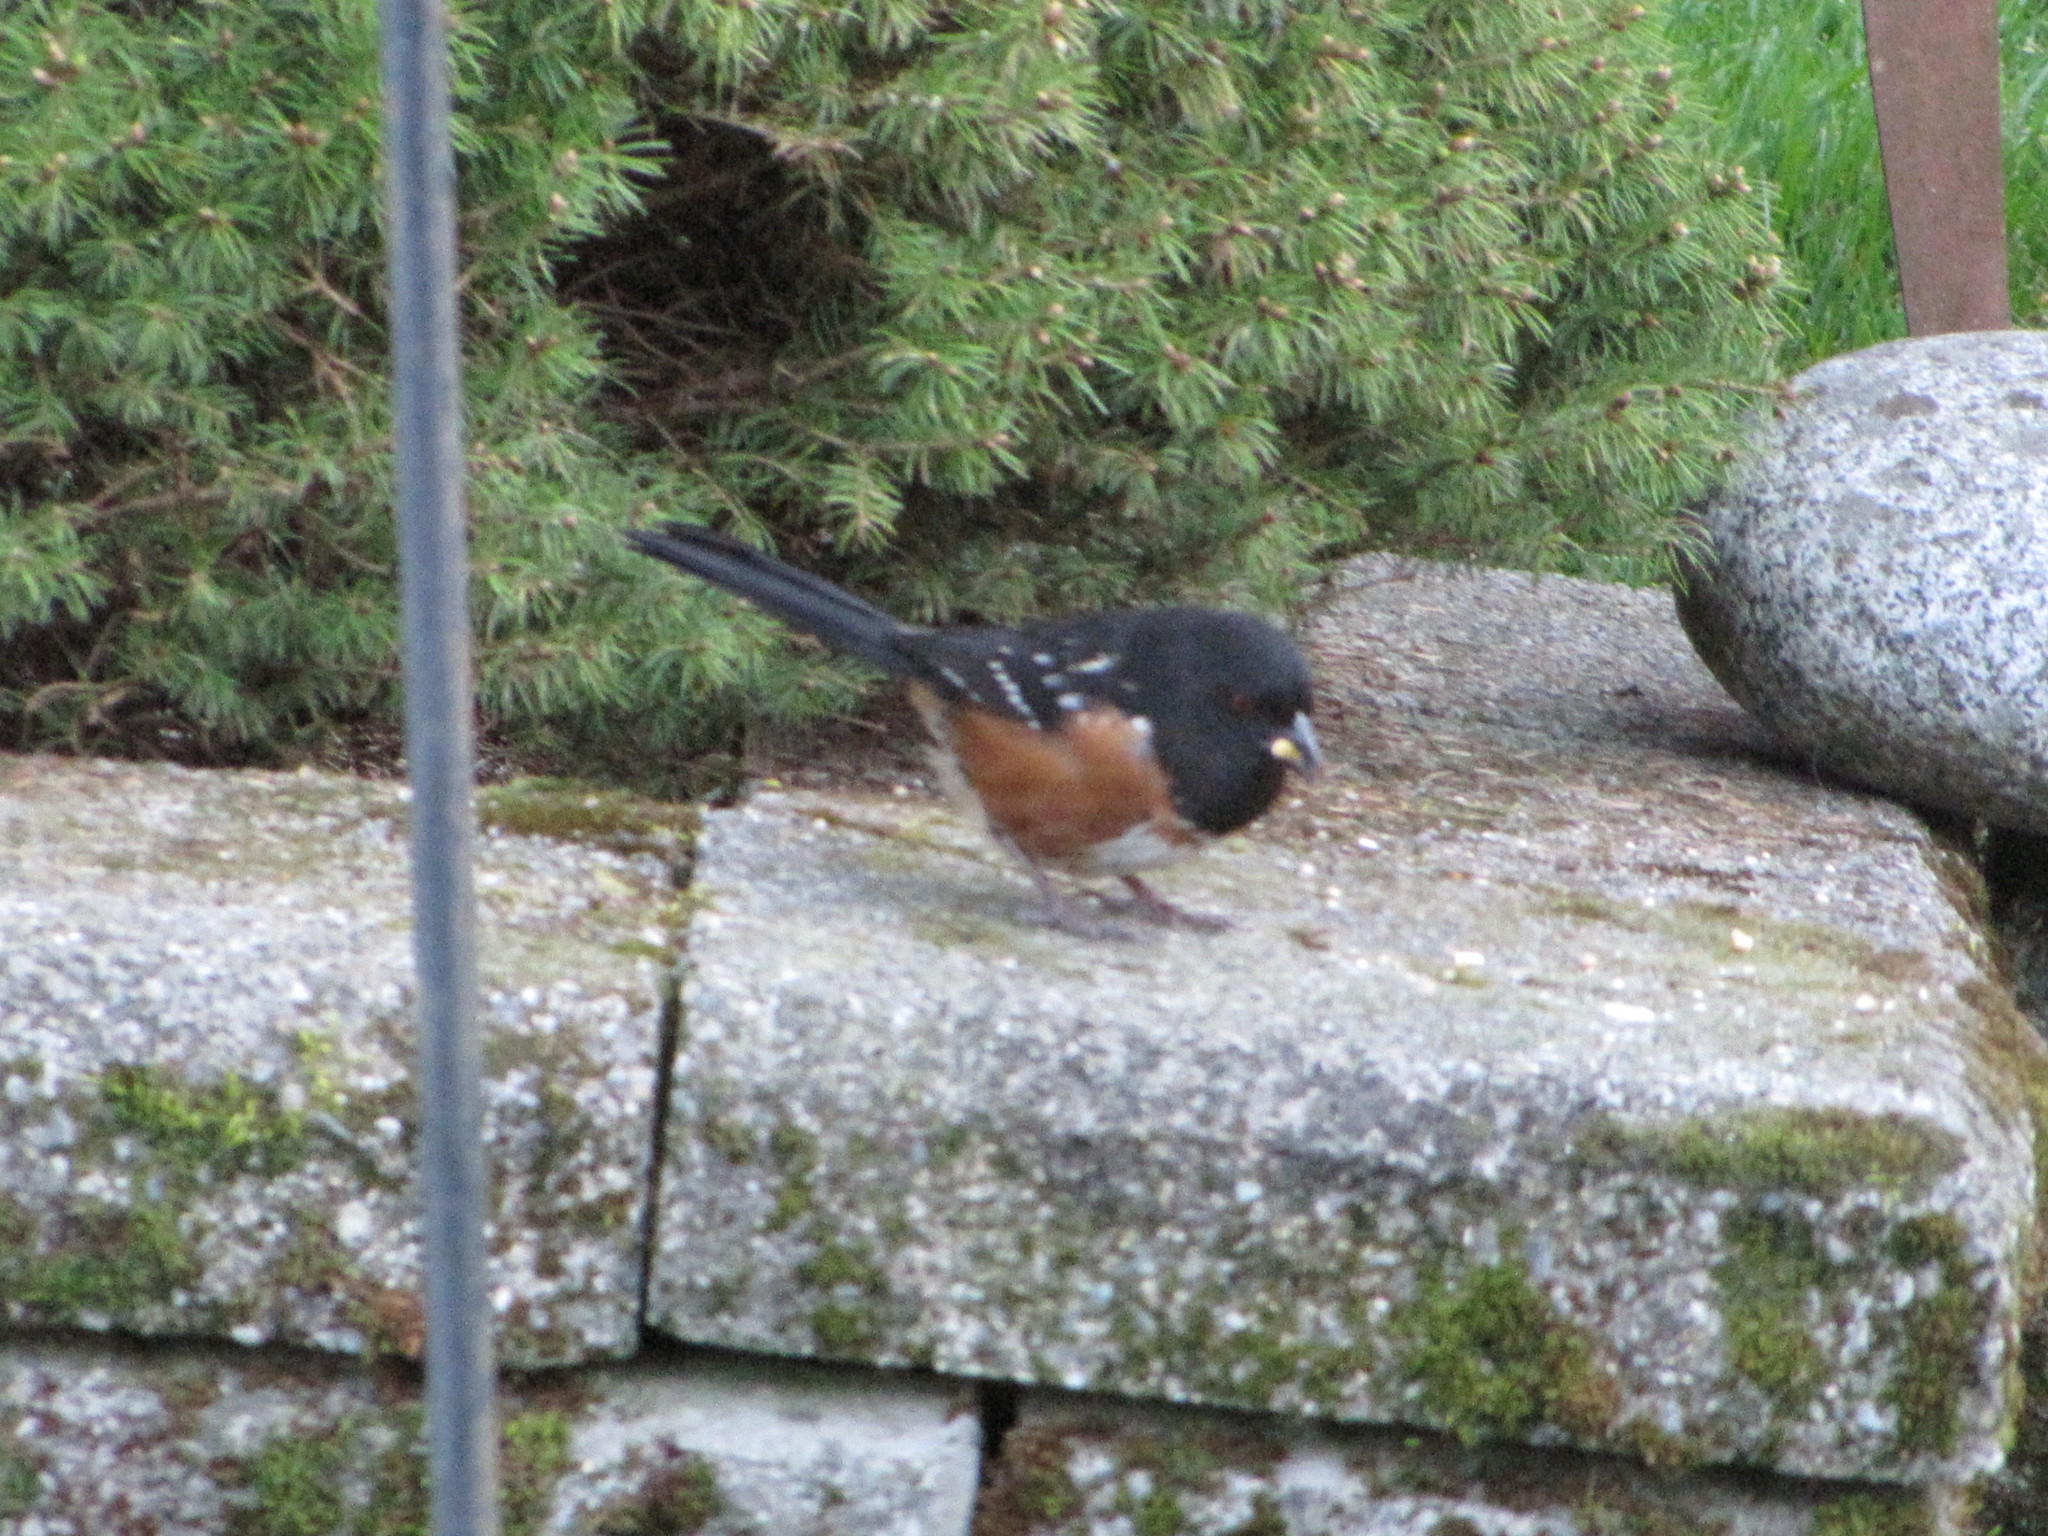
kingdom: Animalia
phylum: Chordata
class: Aves
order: Passeriformes
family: Passerellidae
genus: Pipilo
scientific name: Pipilo maculatus
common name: Spotted towhee
